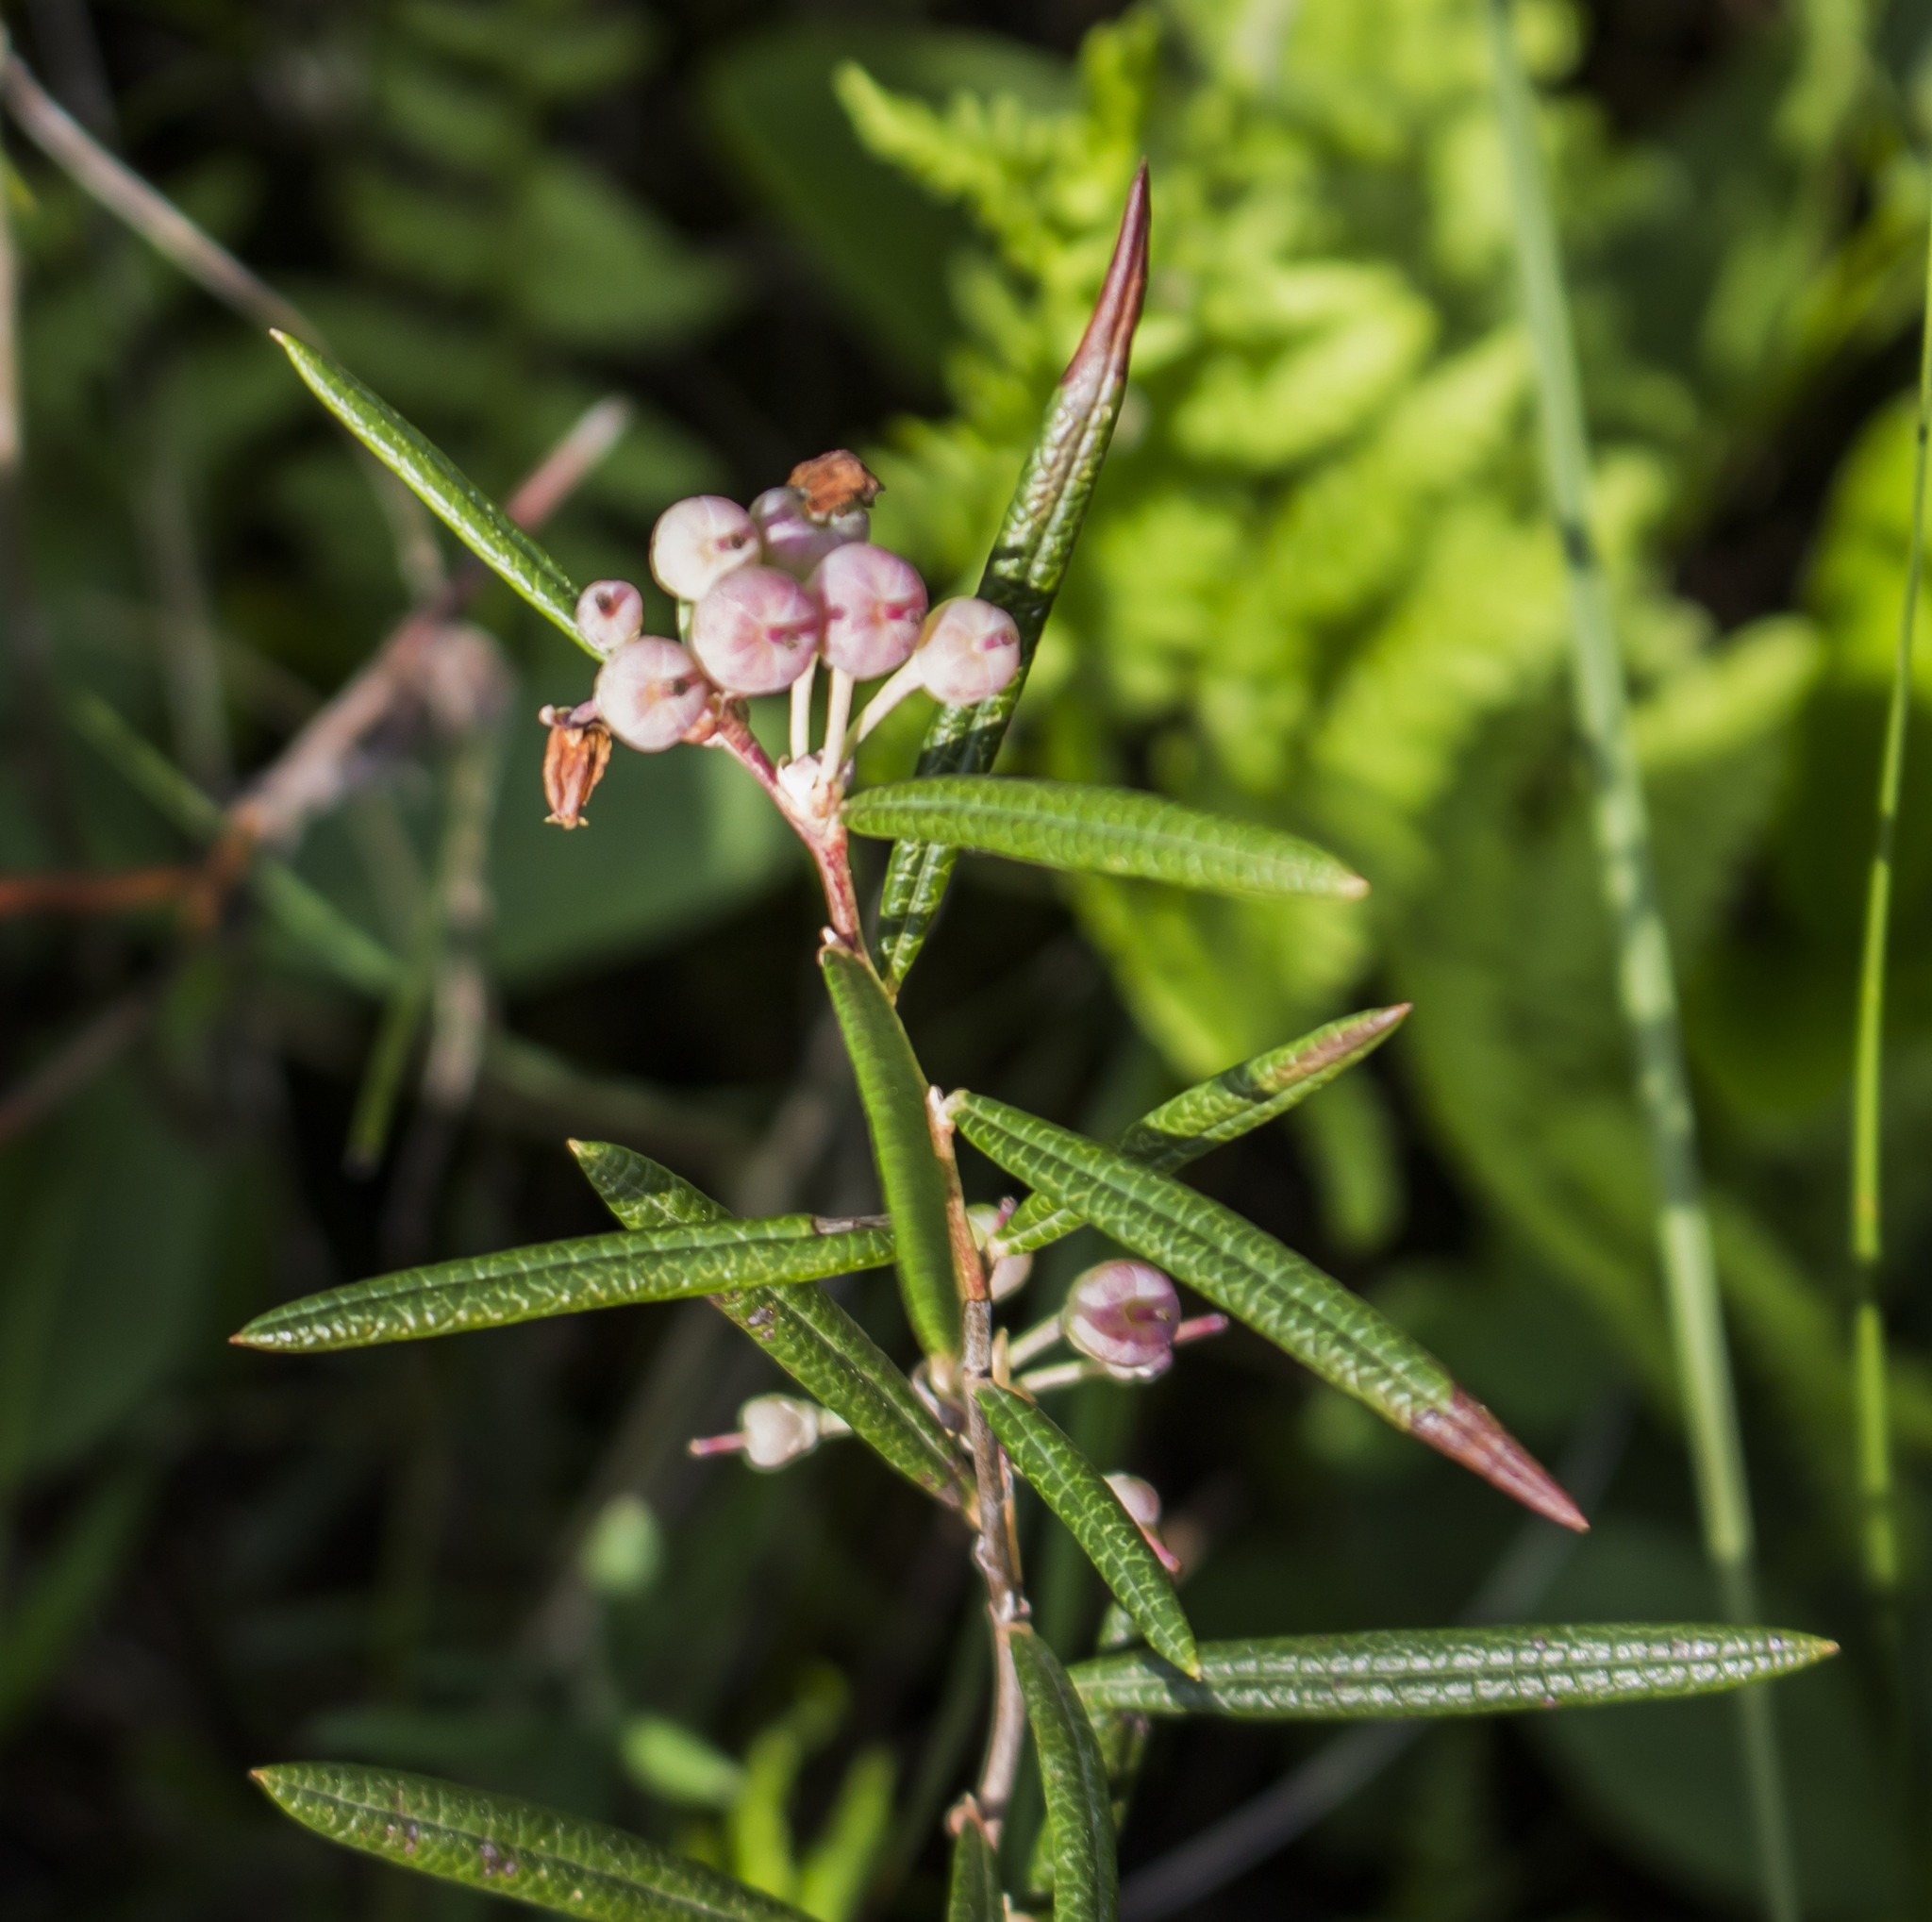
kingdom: Plantae
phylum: Tracheophyta
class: Magnoliopsida
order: Ericales
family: Ericaceae
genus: Andromeda
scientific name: Andromeda polifolia
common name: Bog-rosemary
